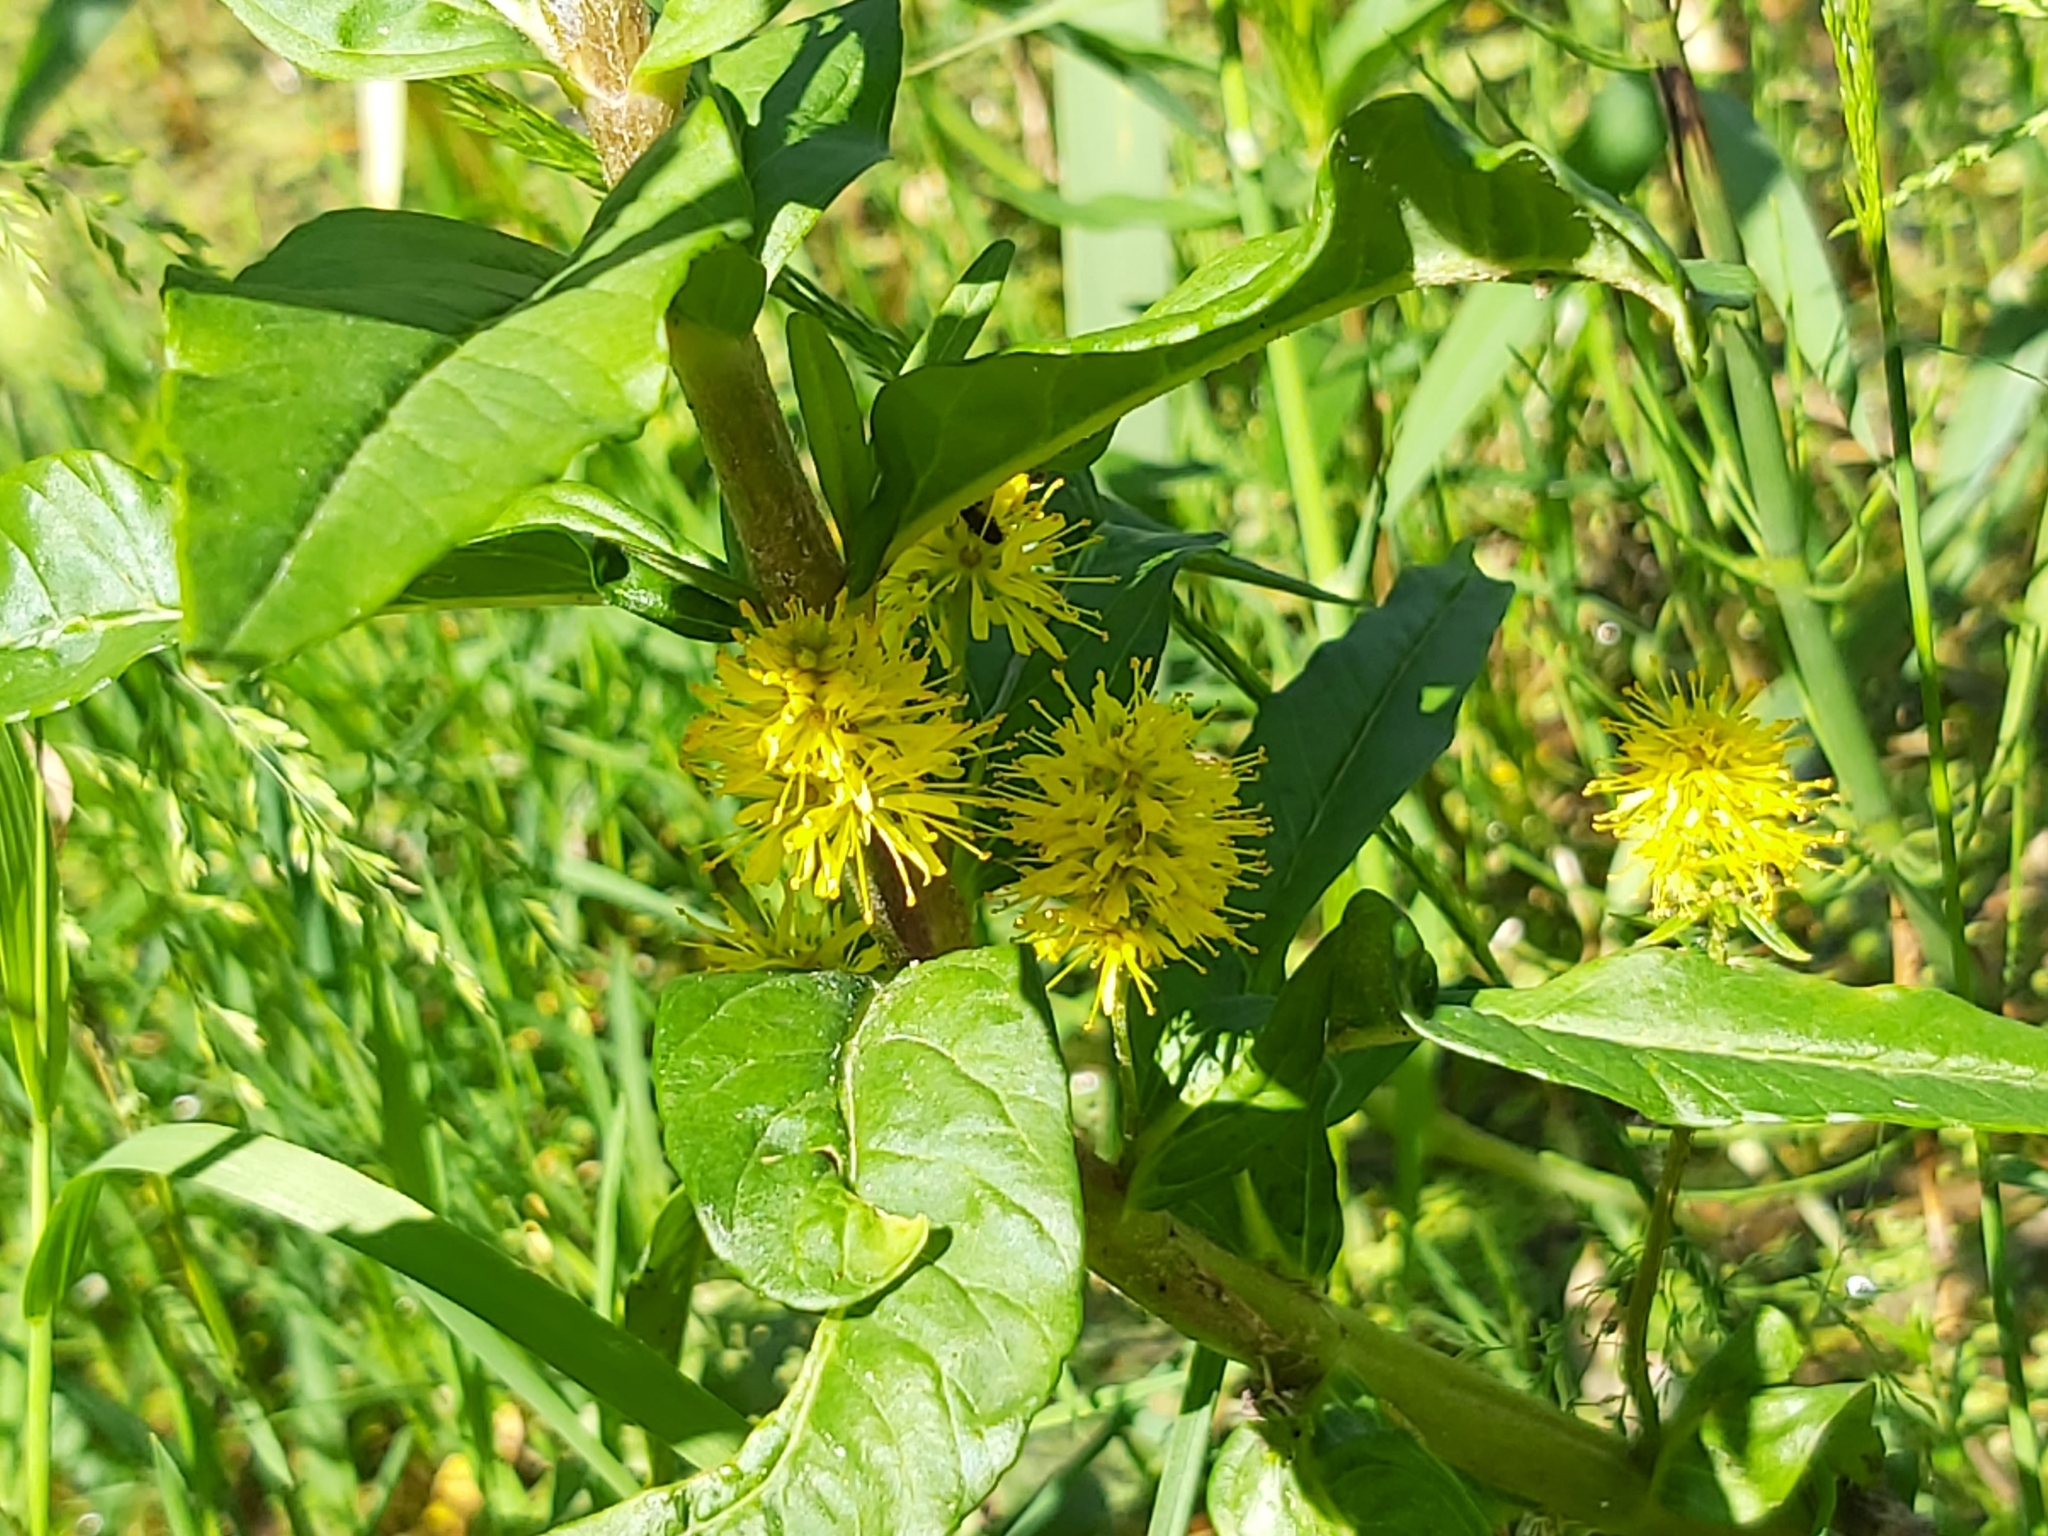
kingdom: Plantae
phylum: Tracheophyta
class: Magnoliopsida
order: Ericales
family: Primulaceae
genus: Lysimachia
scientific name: Lysimachia thyrsiflora
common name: Tufted loosestrife
